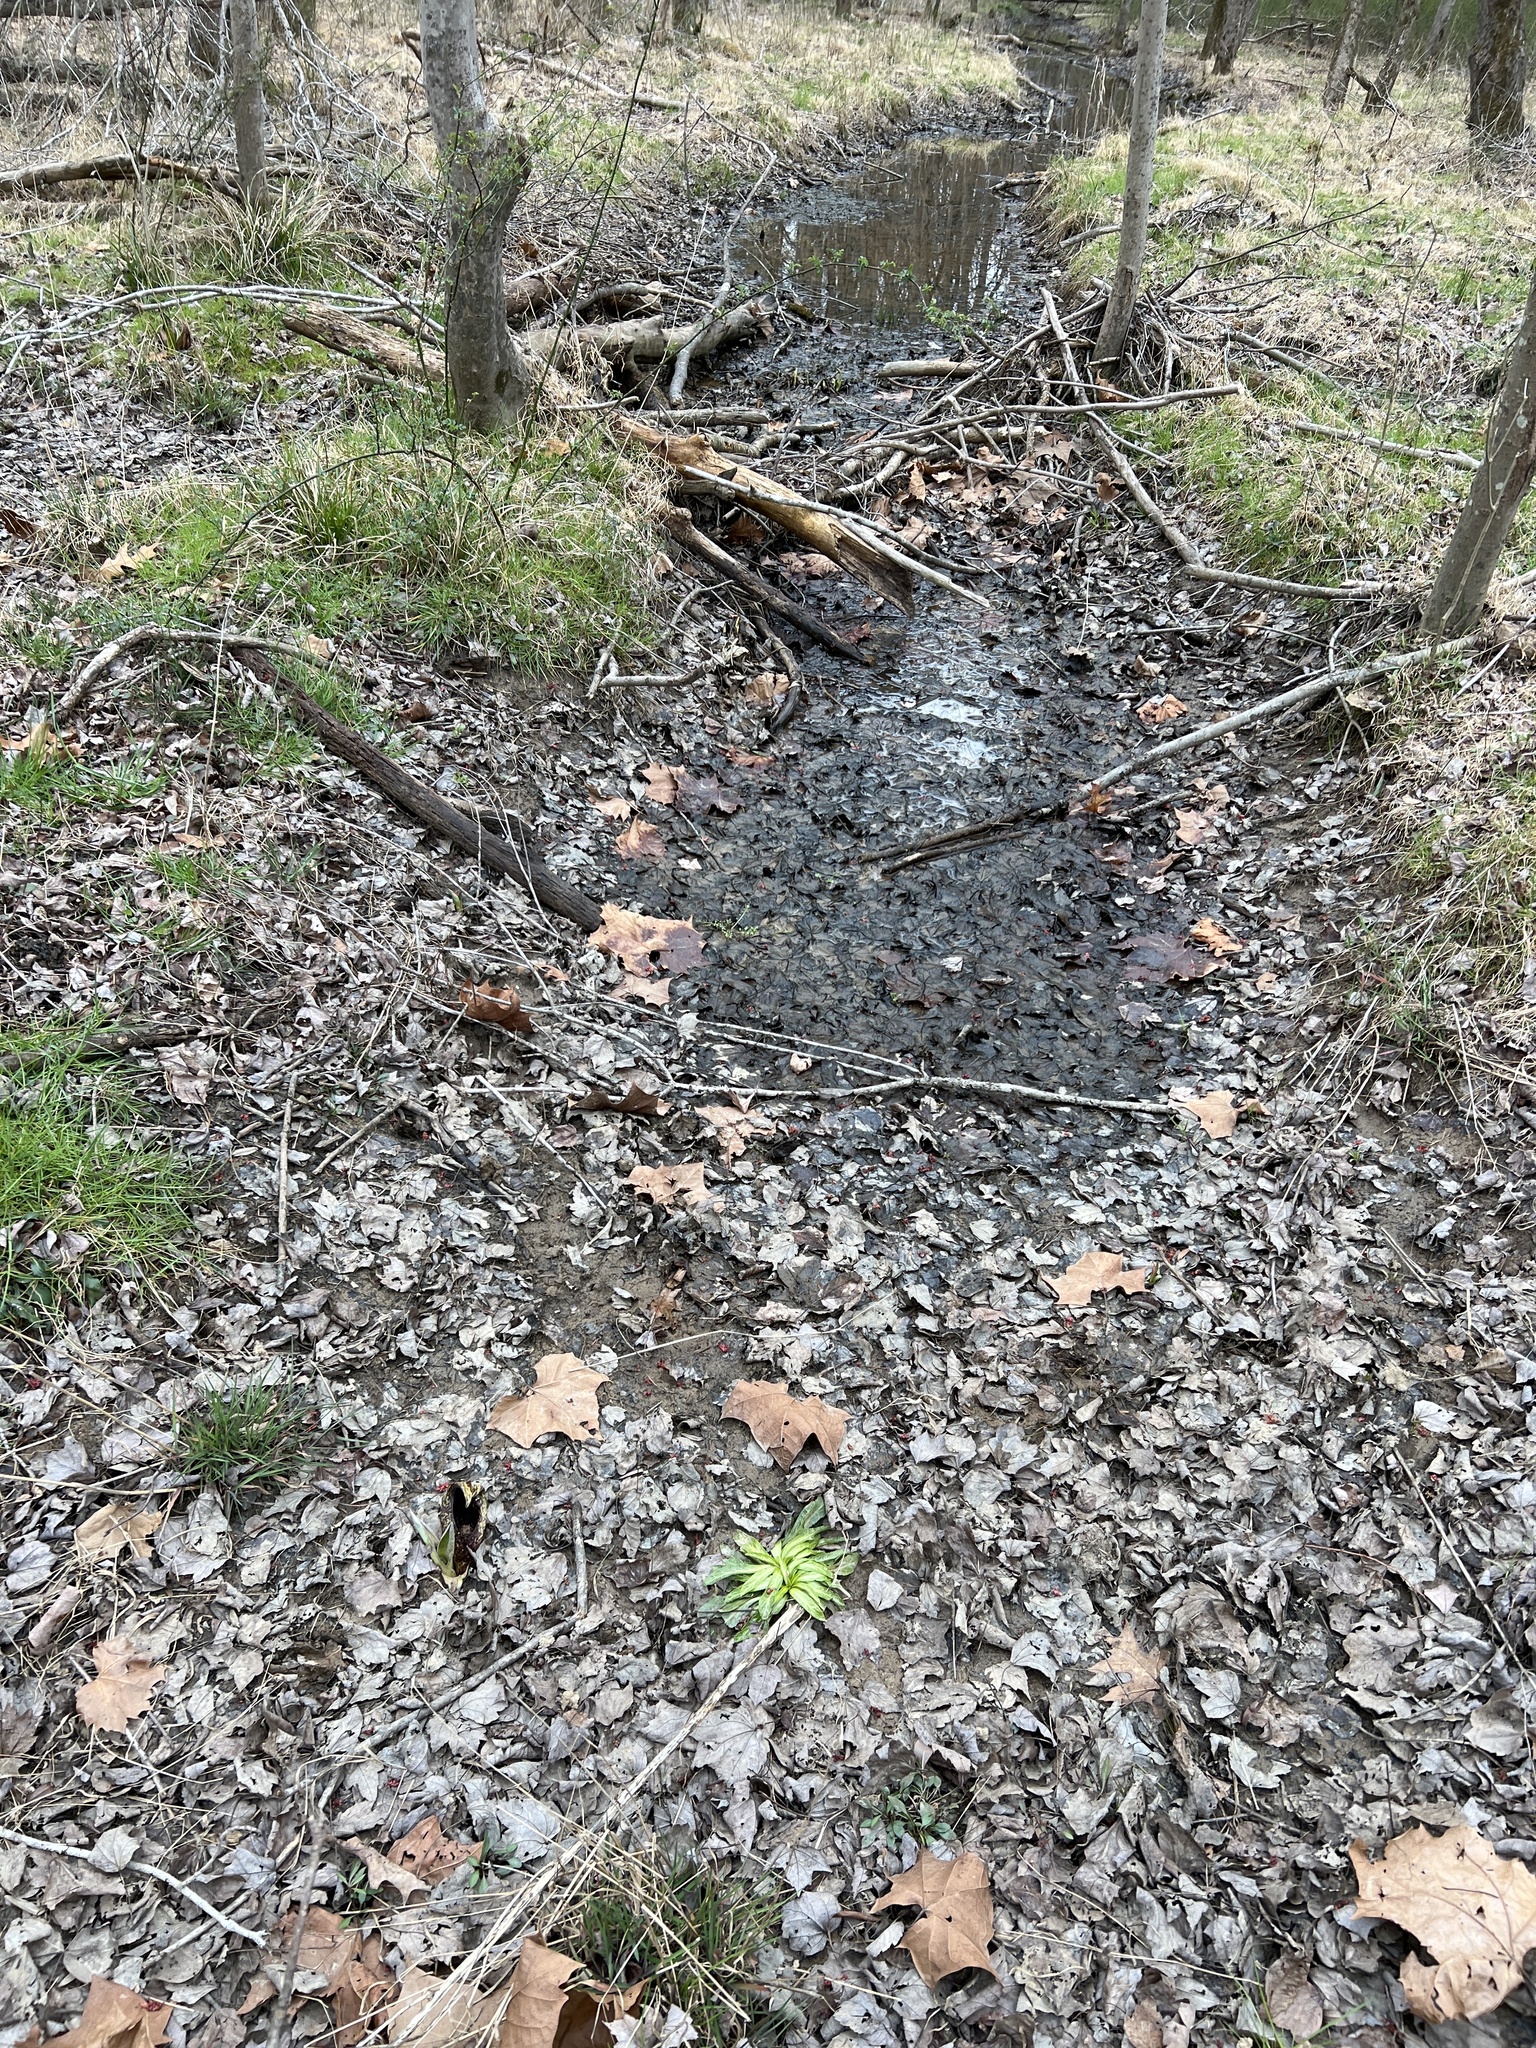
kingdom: Plantae
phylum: Tracheophyta
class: Magnoliopsida
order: Asterales
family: Campanulaceae
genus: Lobelia
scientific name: Lobelia cardinalis
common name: Cardinal flower
